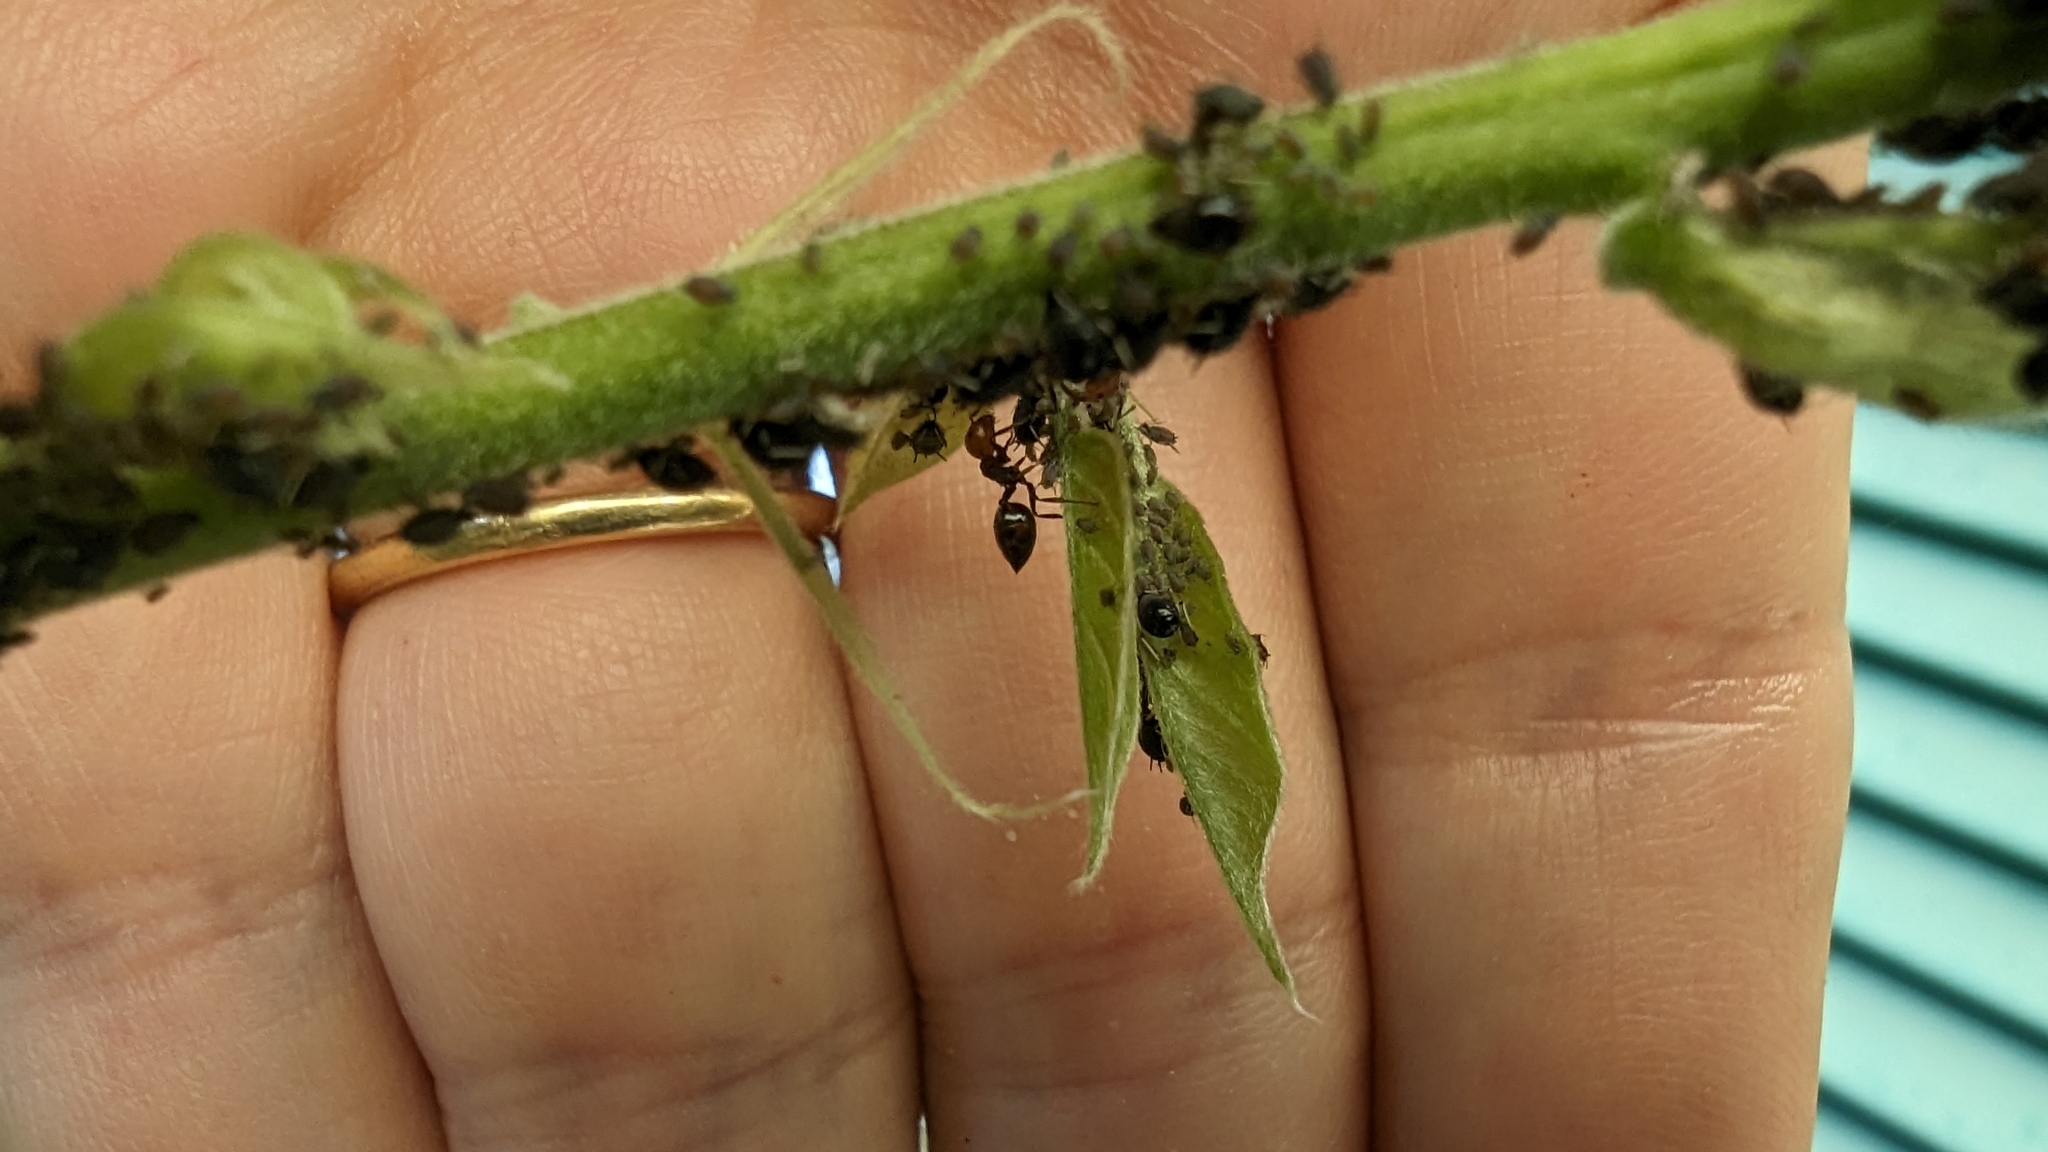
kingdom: Animalia
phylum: Arthropoda
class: Insecta
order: Hymenoptera
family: Formicidae
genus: Crematogaster
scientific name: Crematogaster scutellaris
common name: Fourmi du liège
